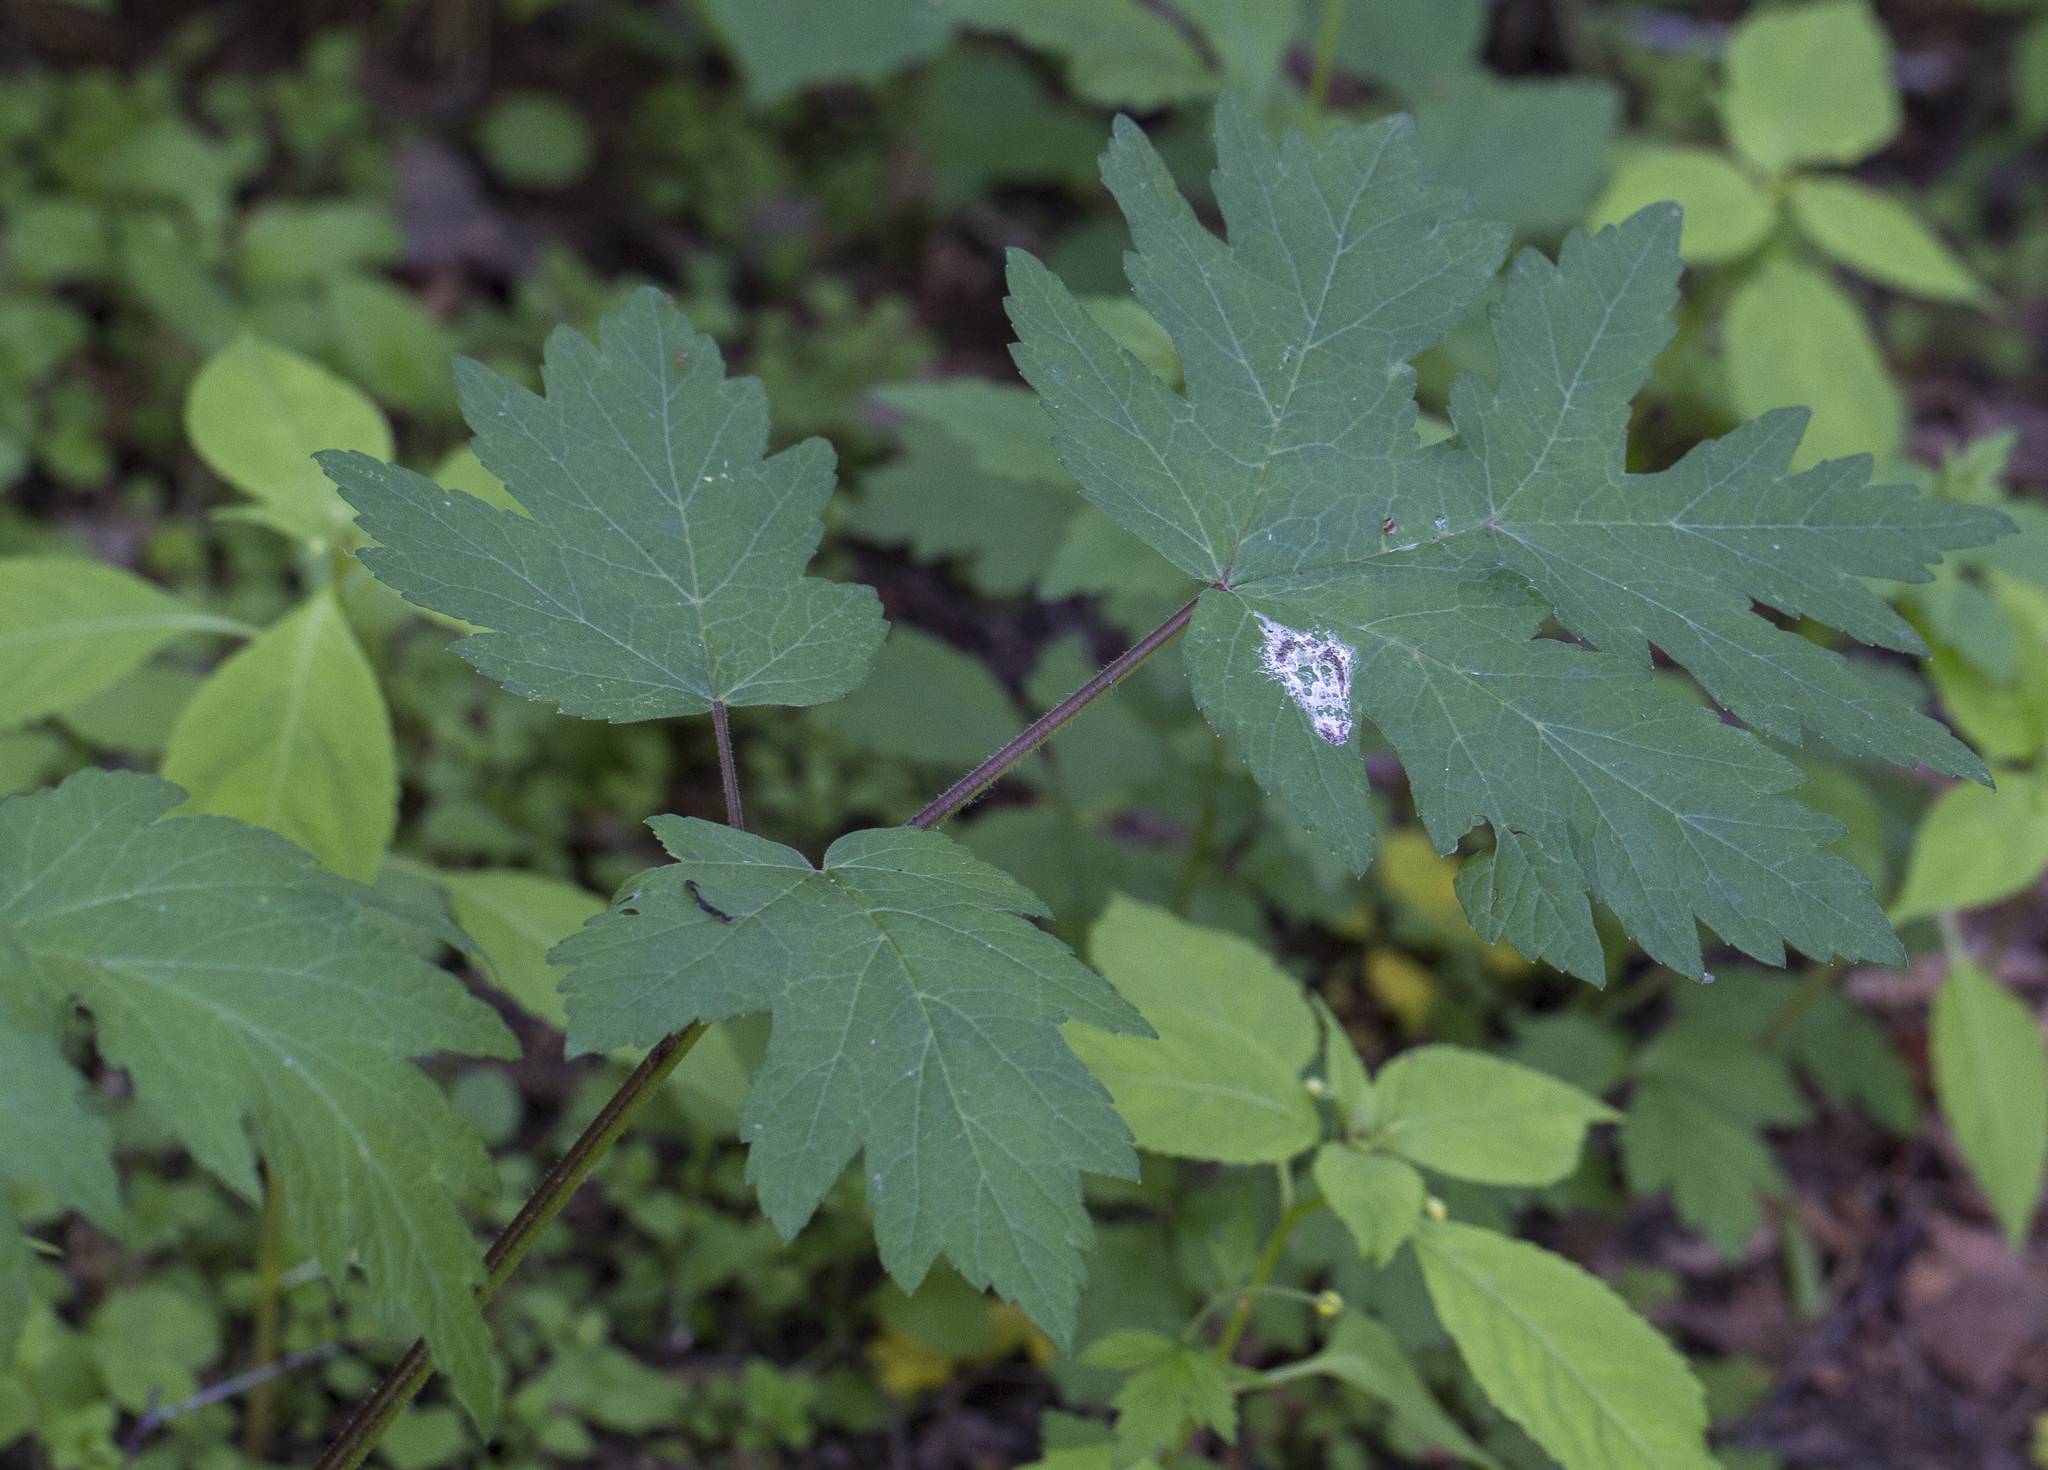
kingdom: Plantae
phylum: Tracheophyta
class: Magnoliopsida
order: Apiales
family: Apiaceae
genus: Heracleum
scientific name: Heracleum sphondylium
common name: Hogweed
